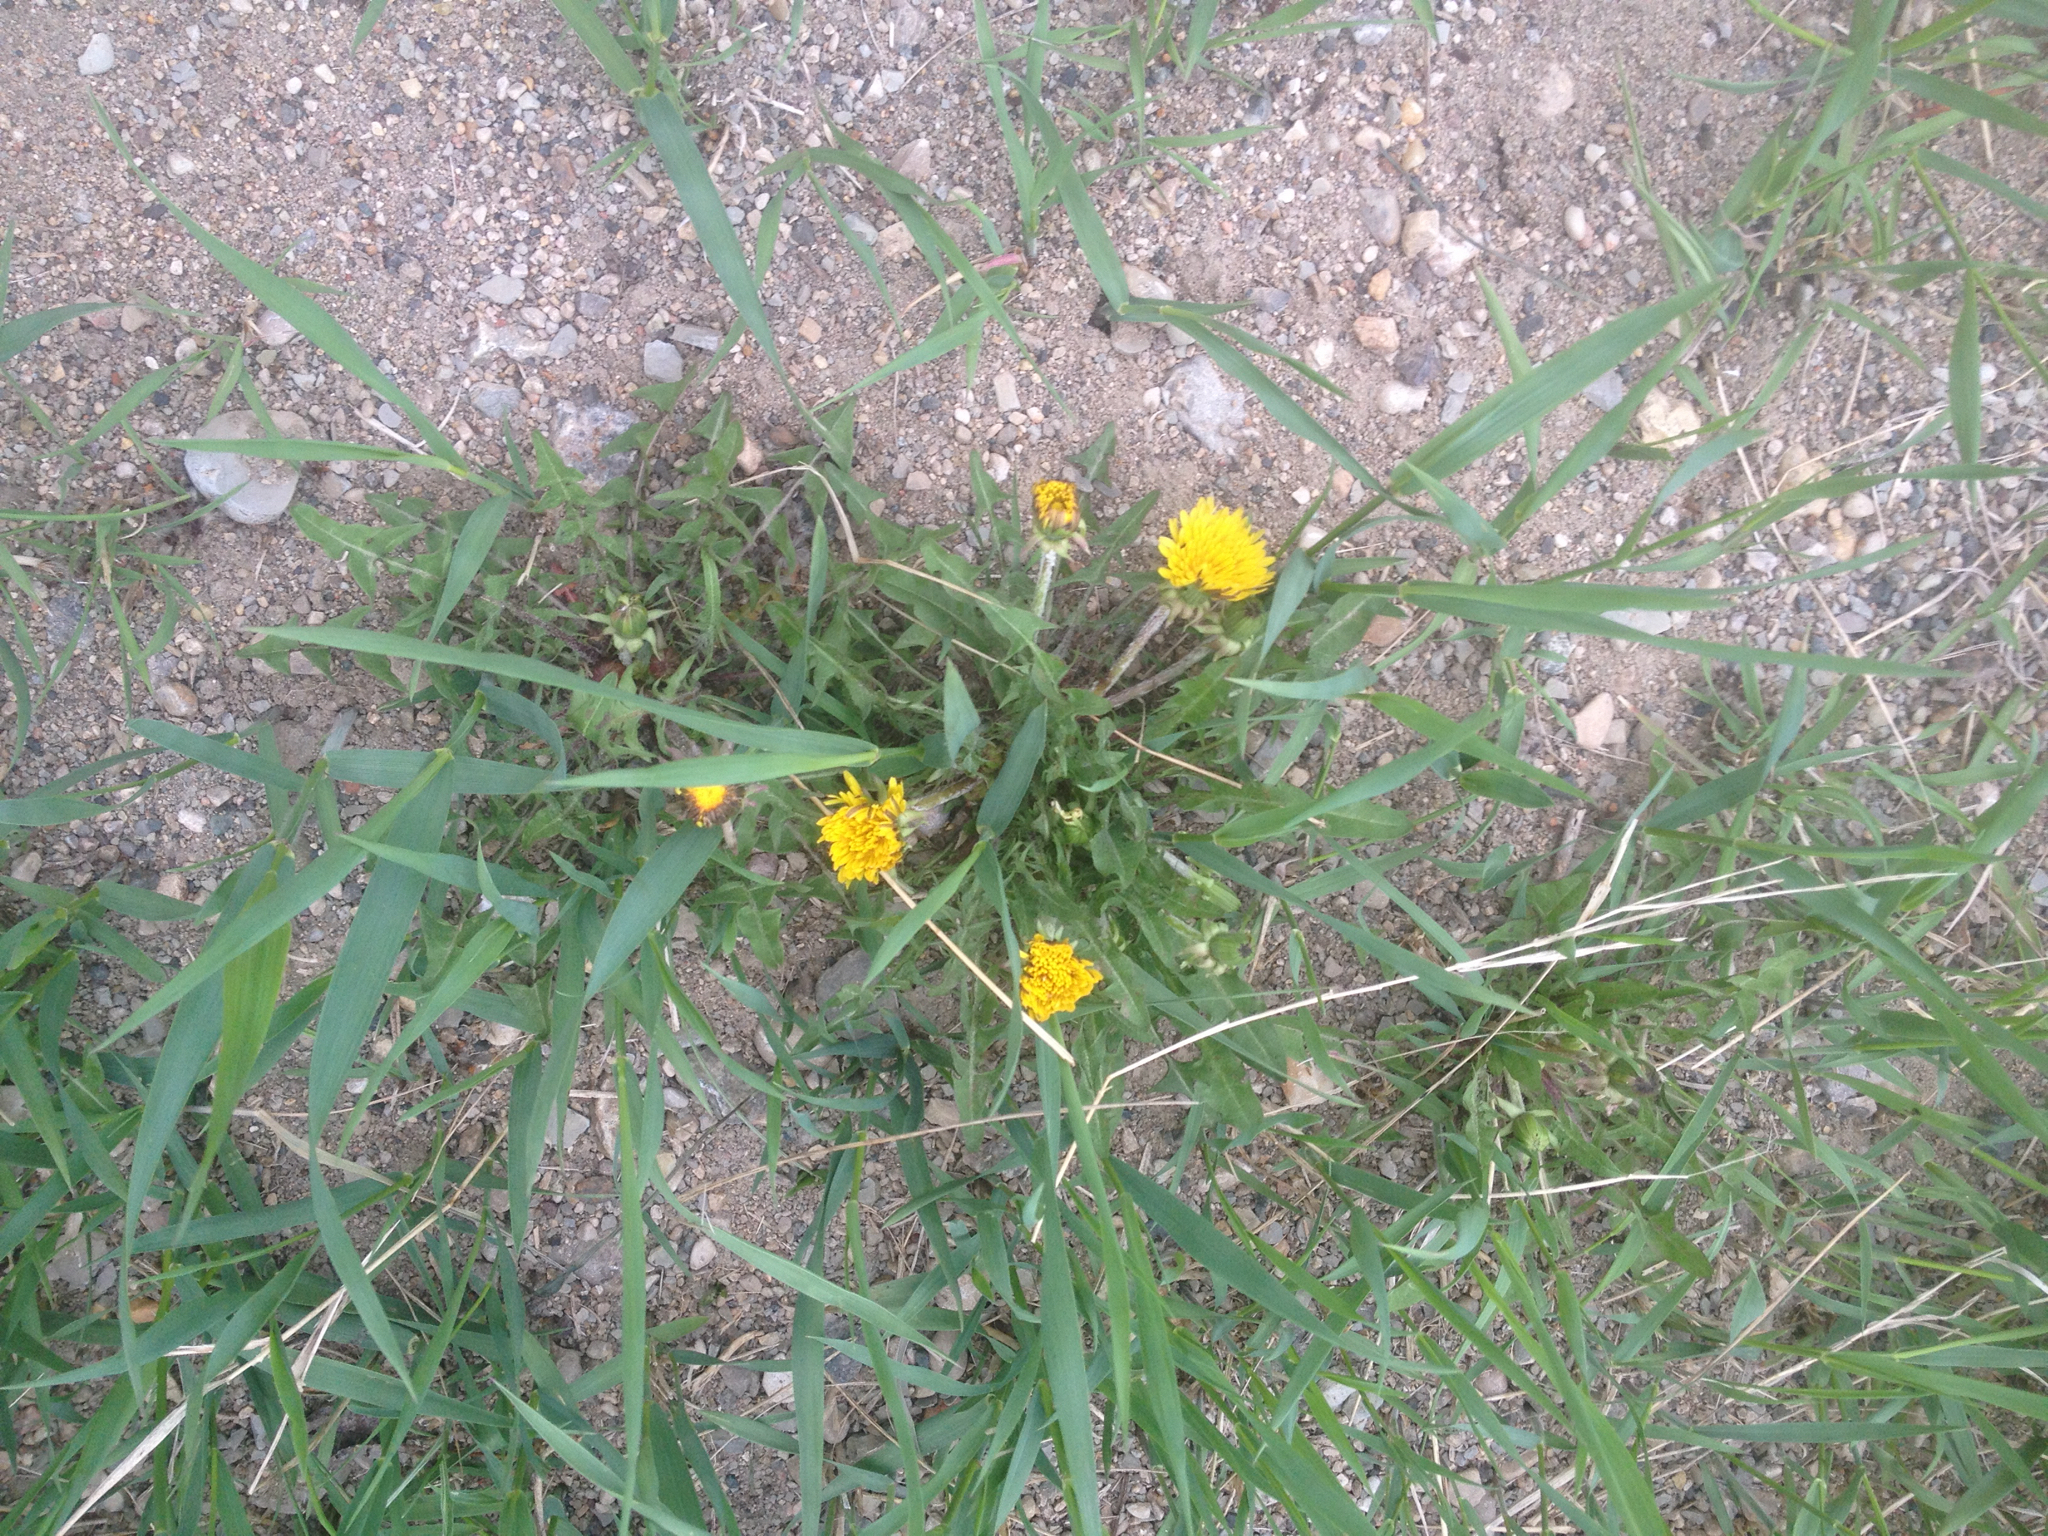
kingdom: Plantae
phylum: Tracheophyta
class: Magnoliopsida
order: Asterales
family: Asteraceae
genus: Taraxacum
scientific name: Taraxacum officinale
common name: Common dandelion
